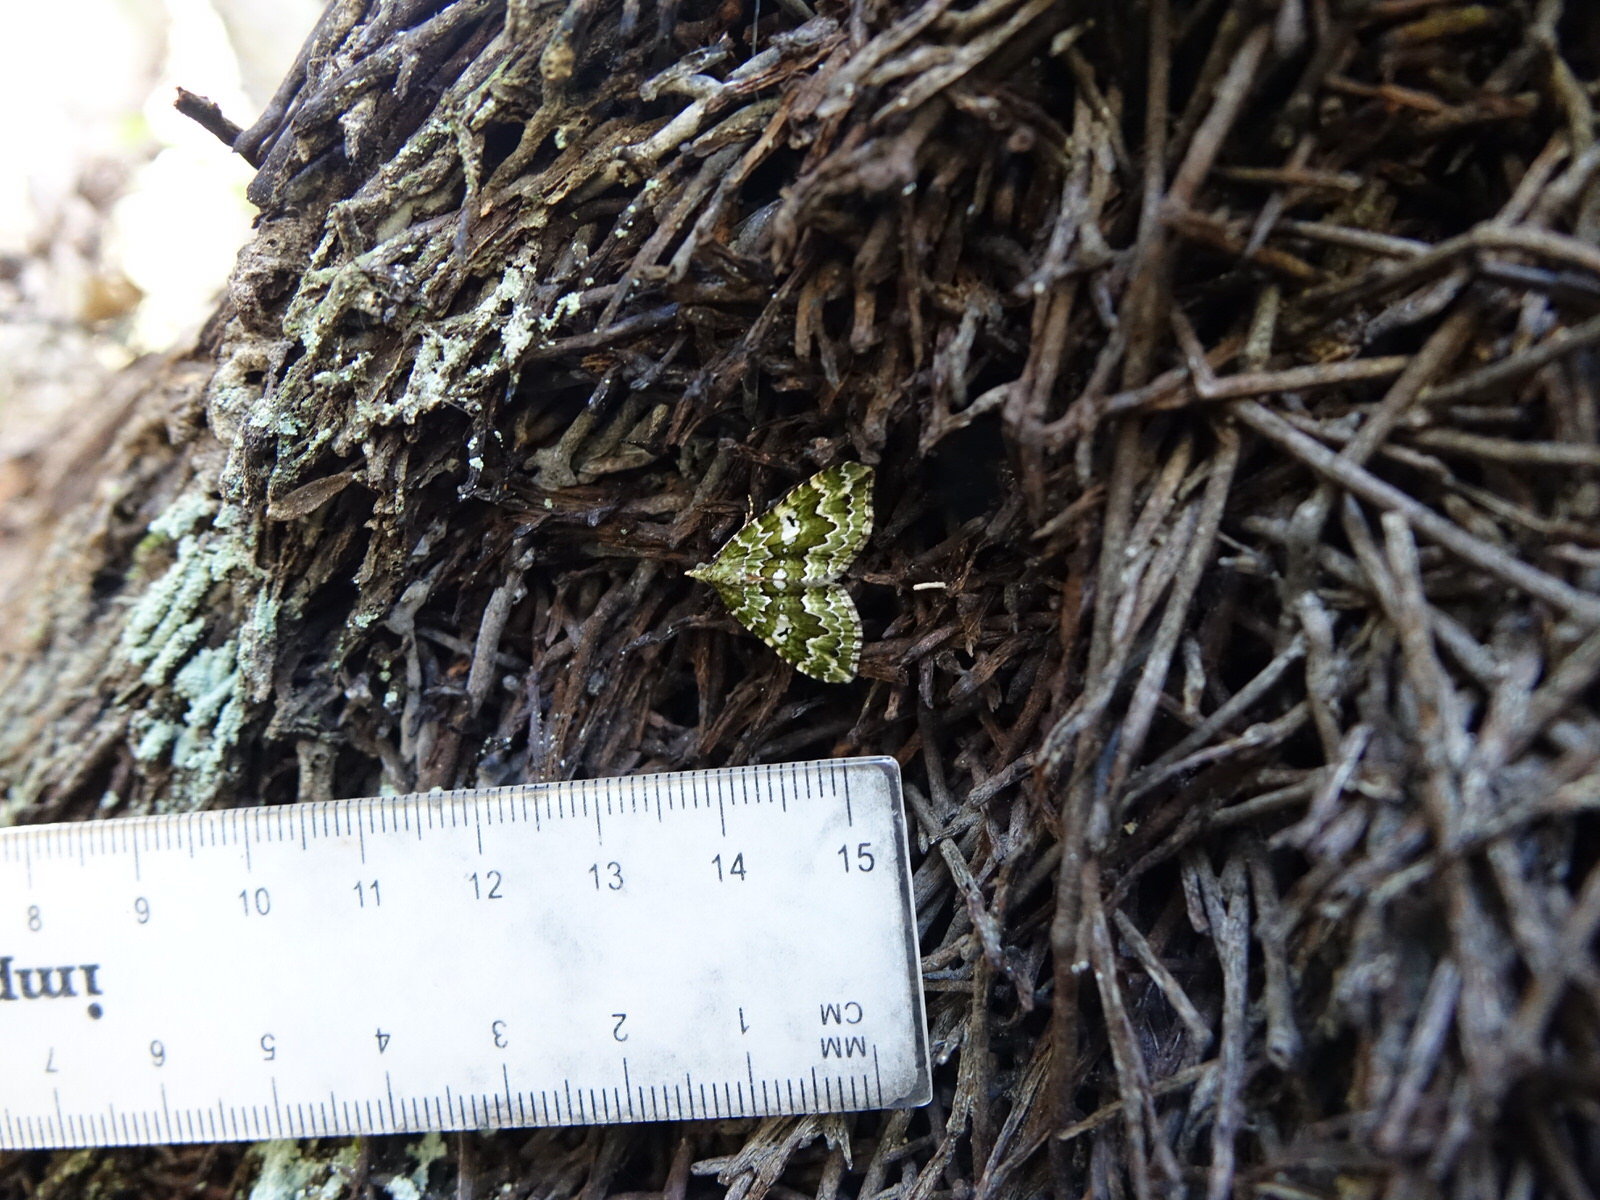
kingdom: Animalia
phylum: Arthropoda
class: Insecta
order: Lepidoptera
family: Geometridae
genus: Asaphodes
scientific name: Asaphodes beata
